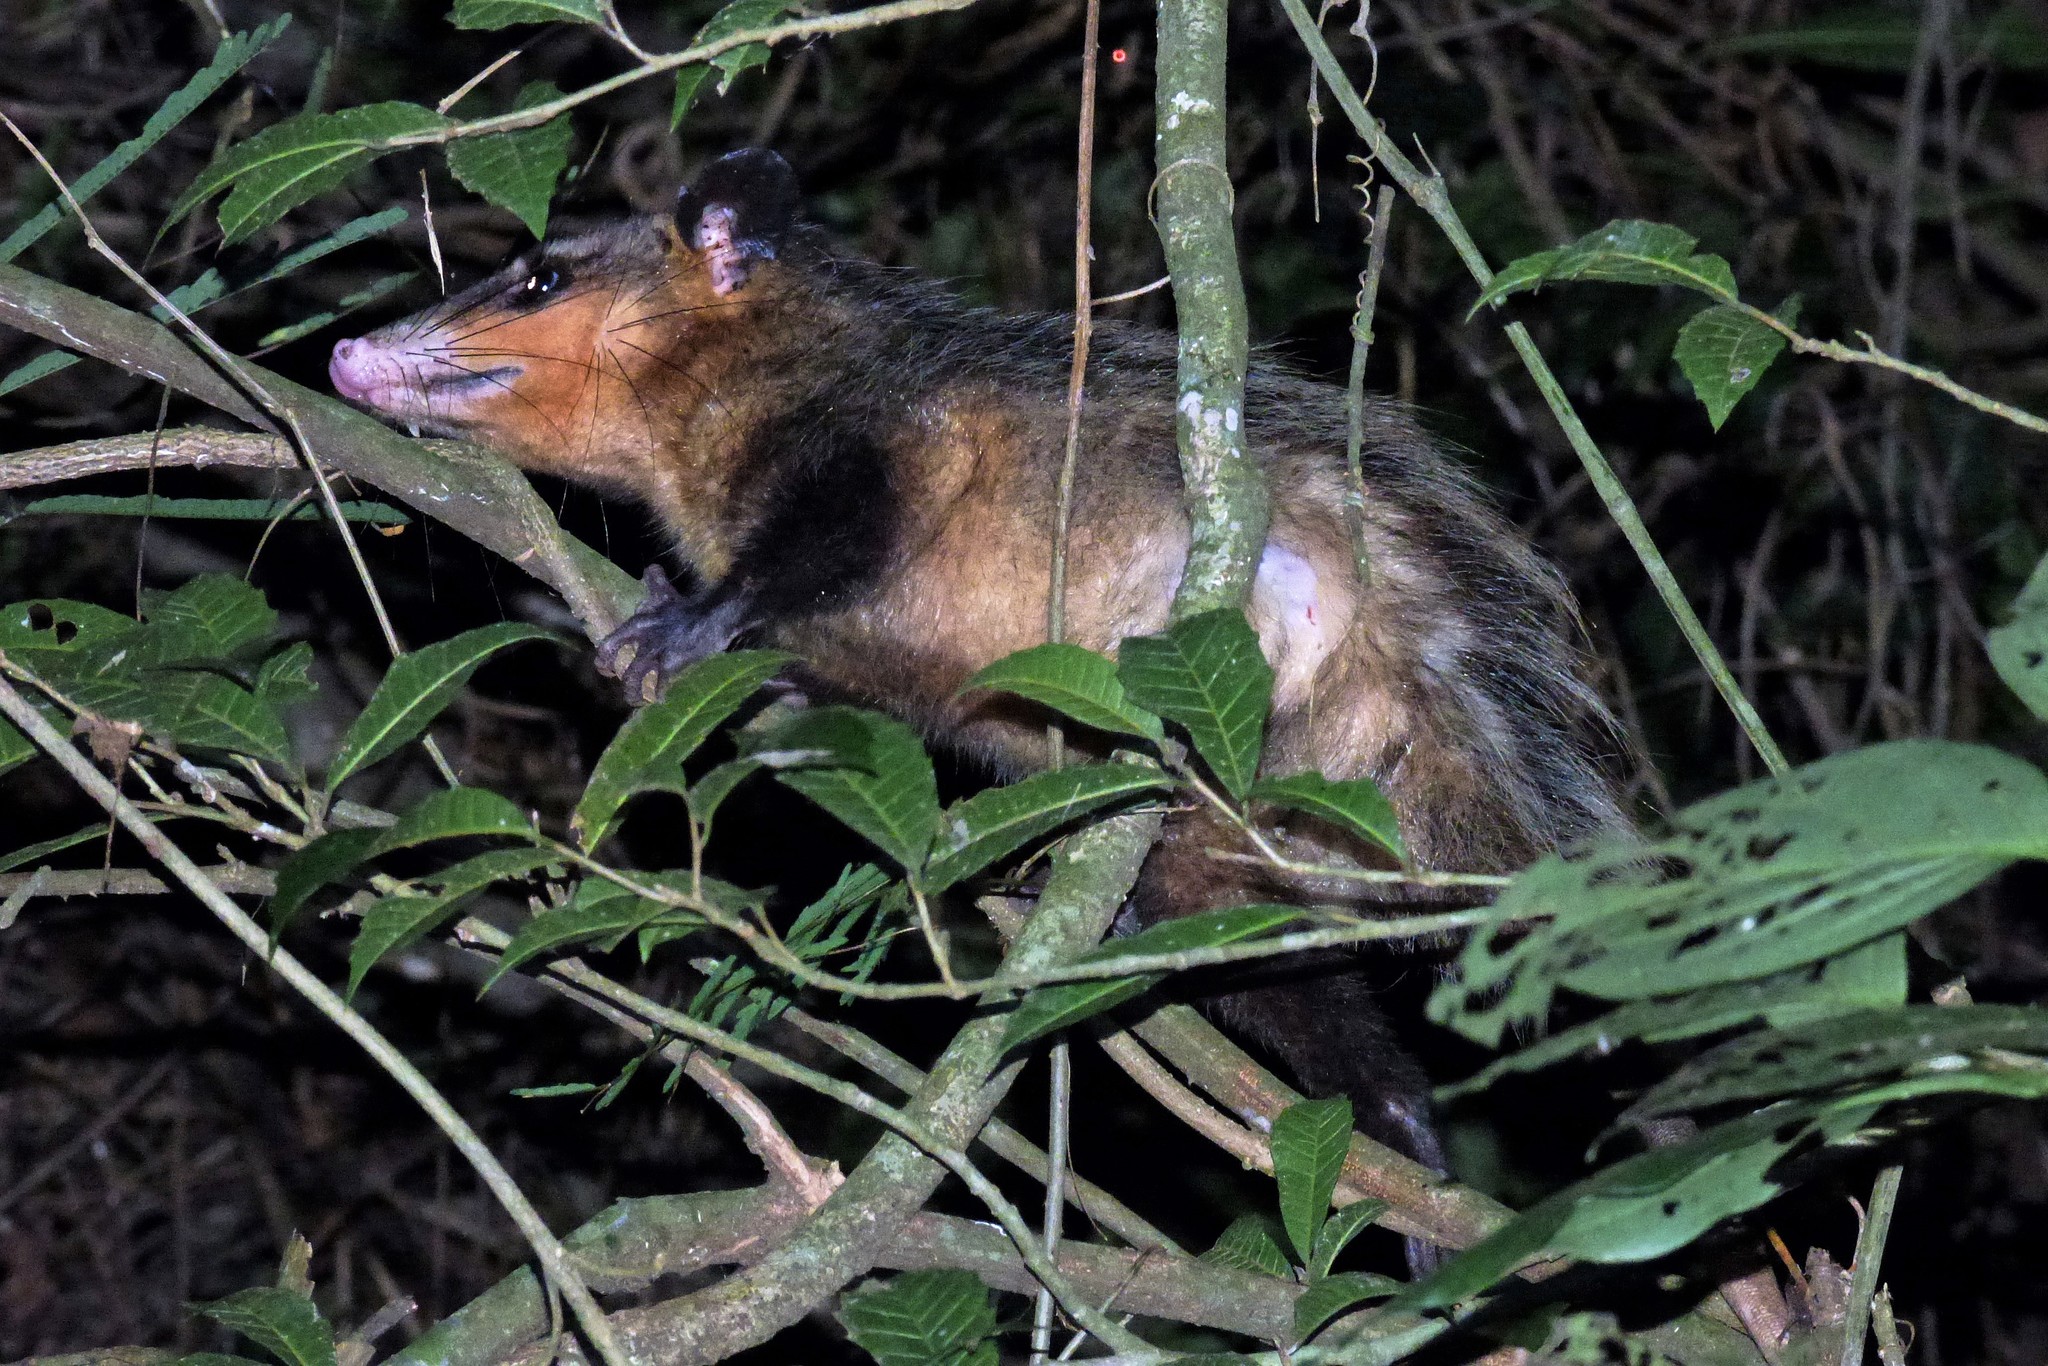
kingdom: Animalia
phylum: Chordata
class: Mammalia
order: Didelphimorphia
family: Didelphidae
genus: Didelphis
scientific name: Didelphis aurita
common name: Big-eared opossum
